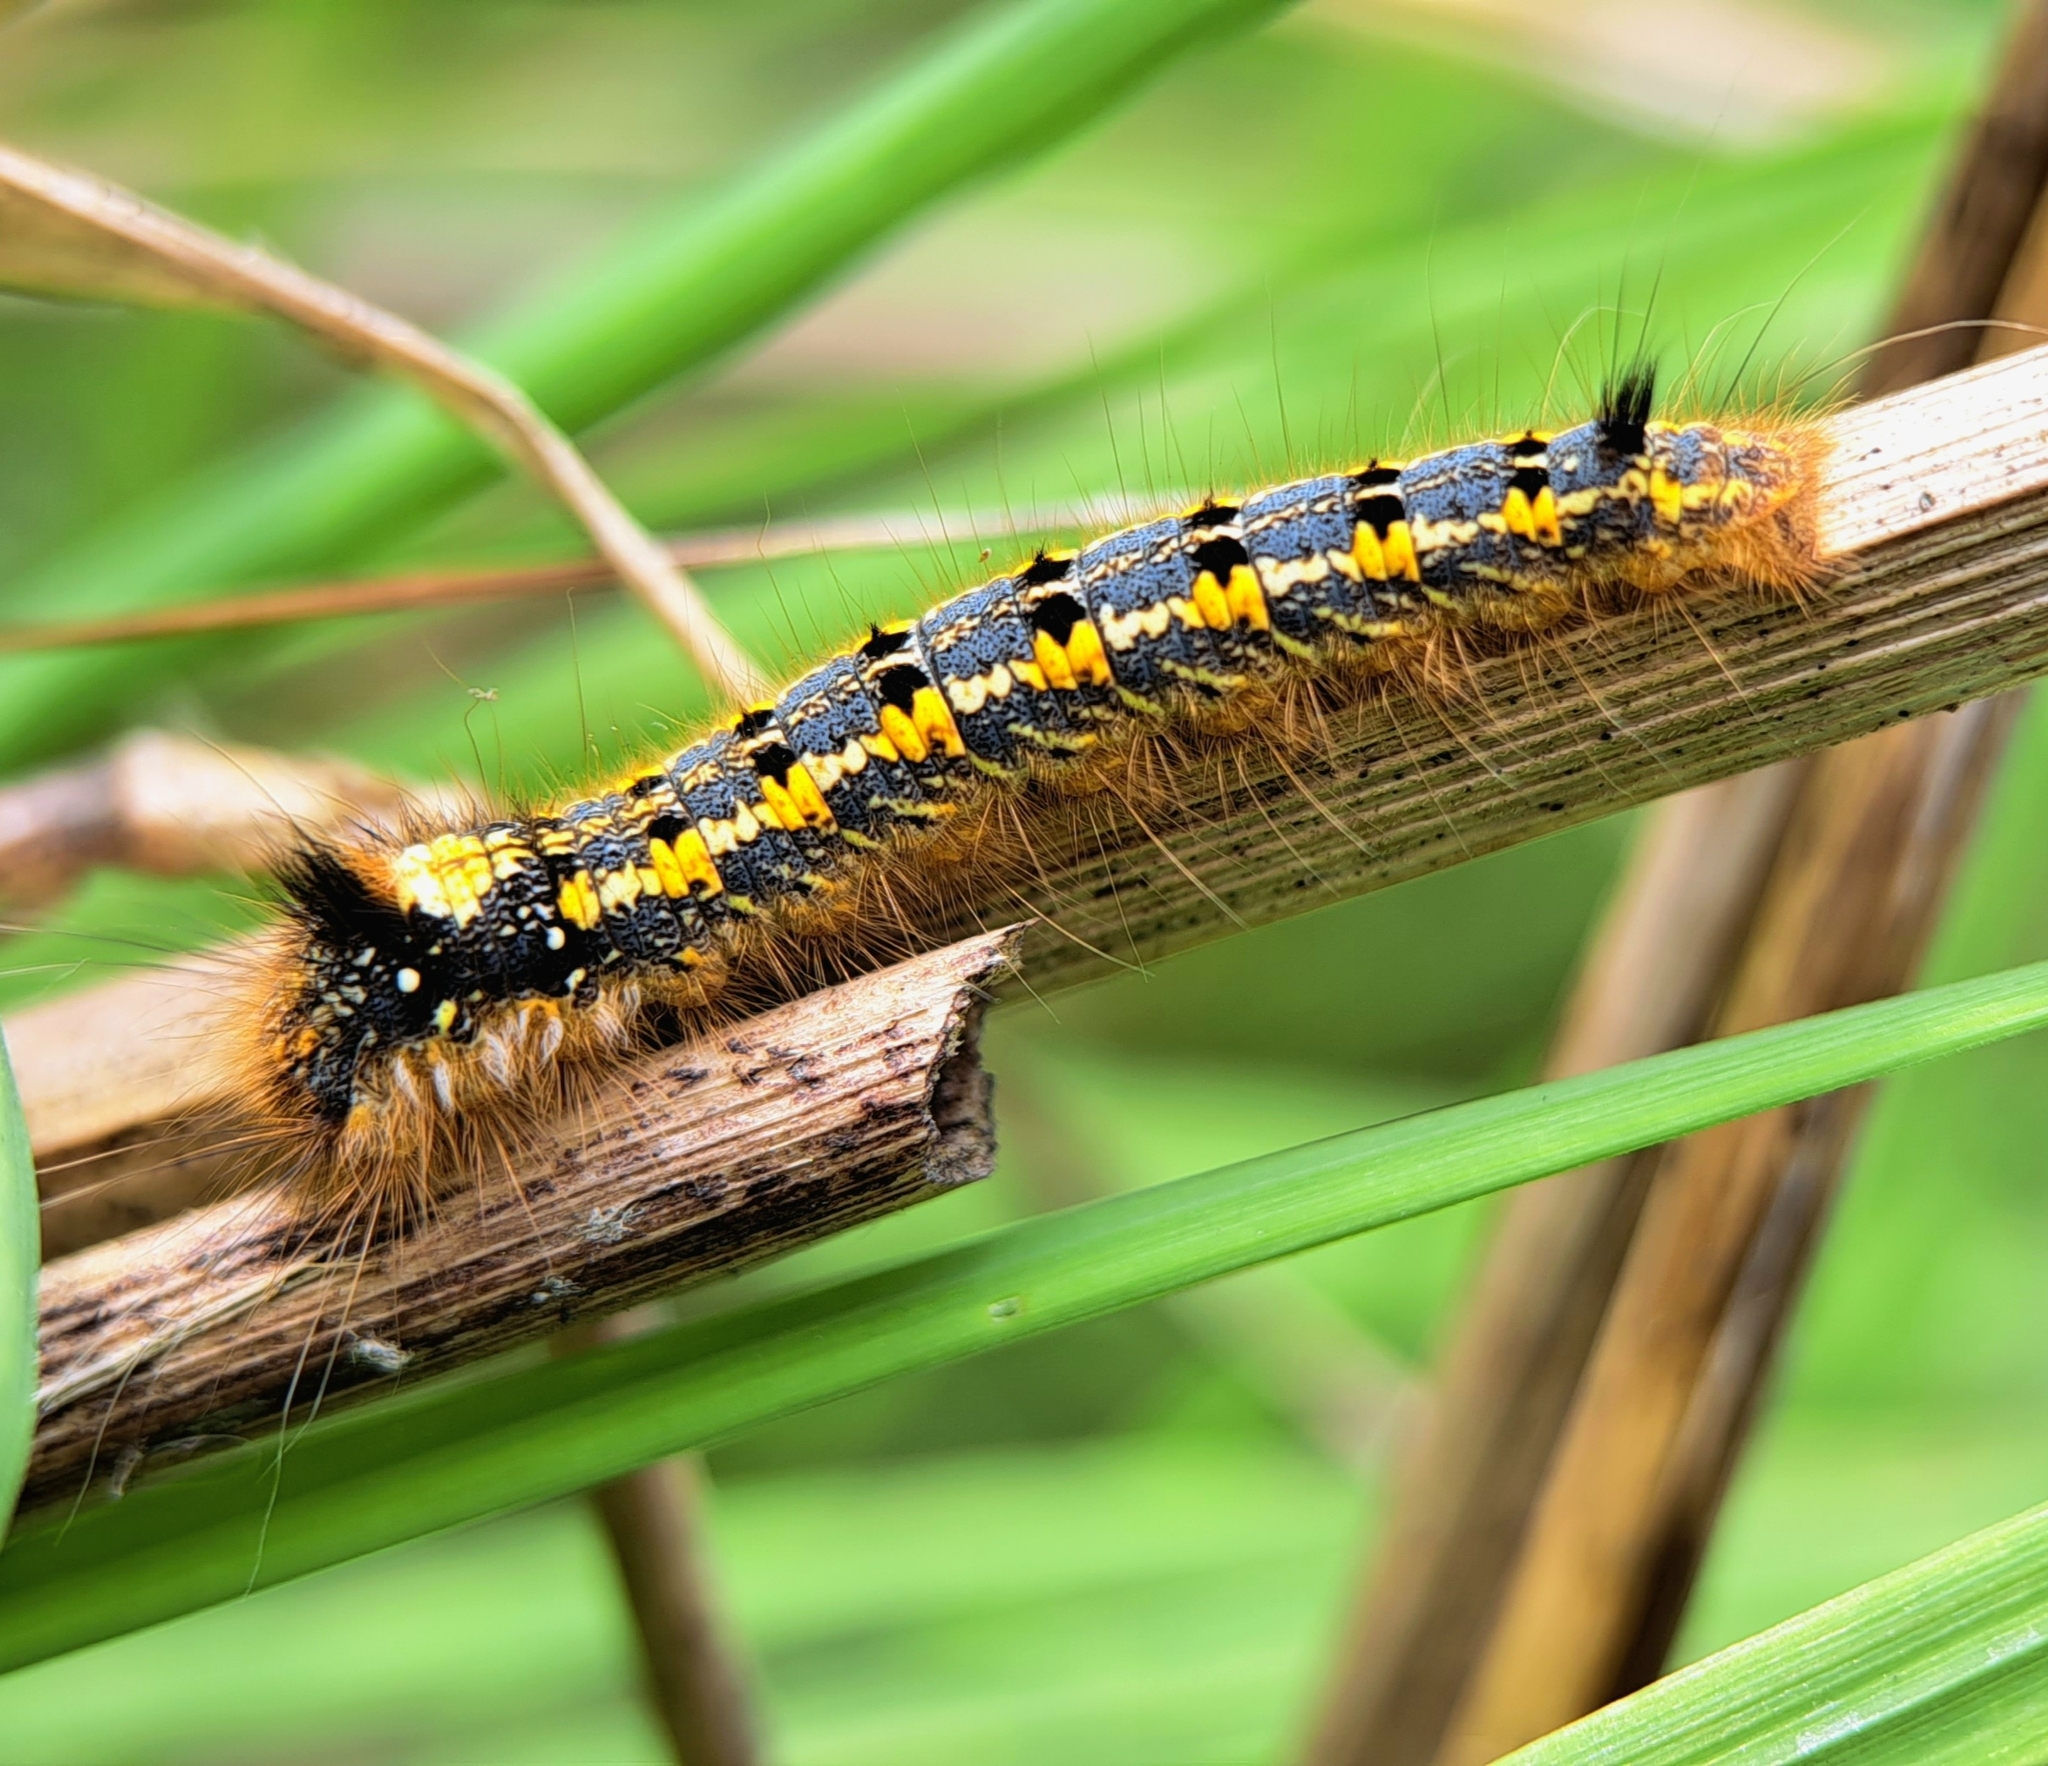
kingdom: Animalia
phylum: Arthropoda
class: Insecta
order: Lepidoptera
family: Lasiocampidae
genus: Euthrix
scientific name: Euthrix potatoria
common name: Drinker
